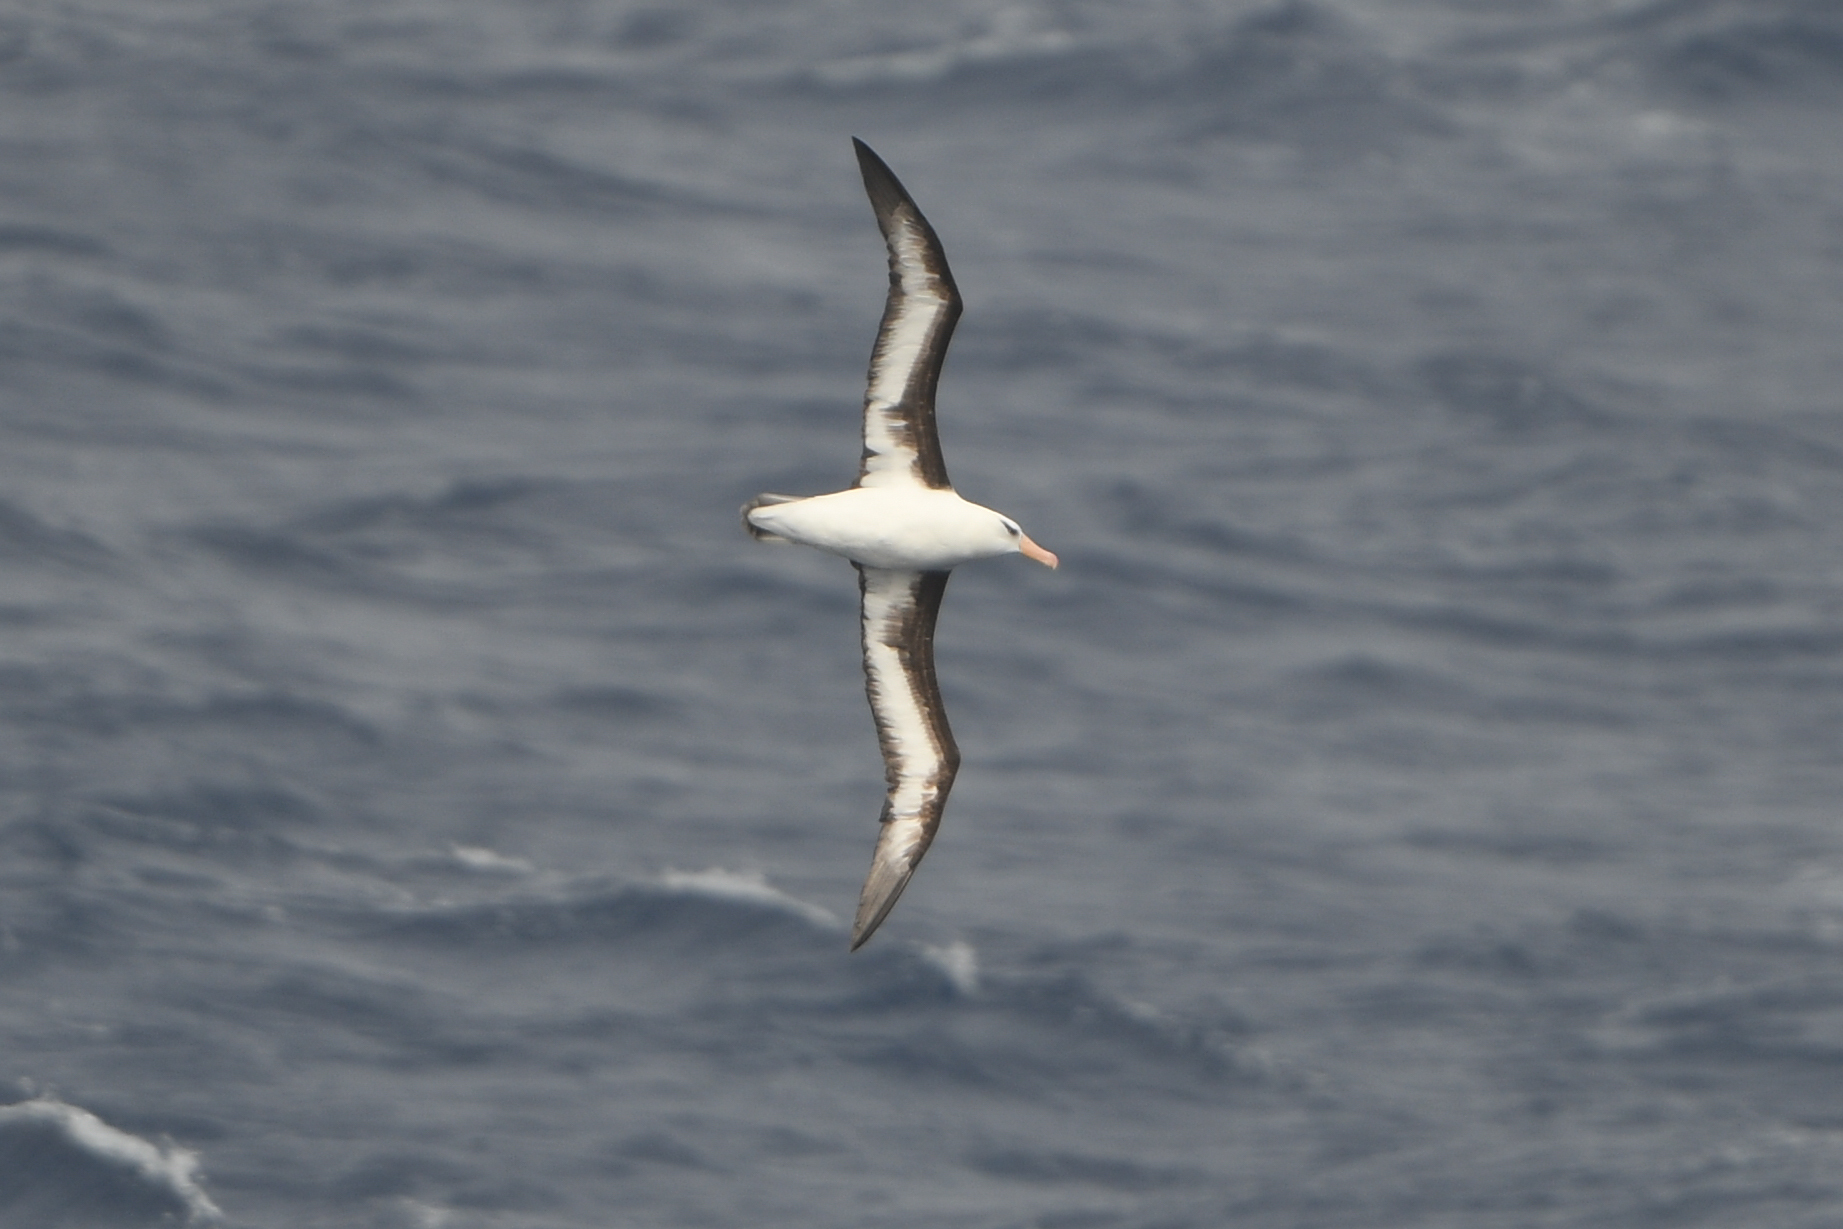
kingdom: Animalia
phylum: Chordata
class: Aves
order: Procellariiformes
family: Diomedeidae
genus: Thalassarche
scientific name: Thalassarche impavida
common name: Campbell albatross
